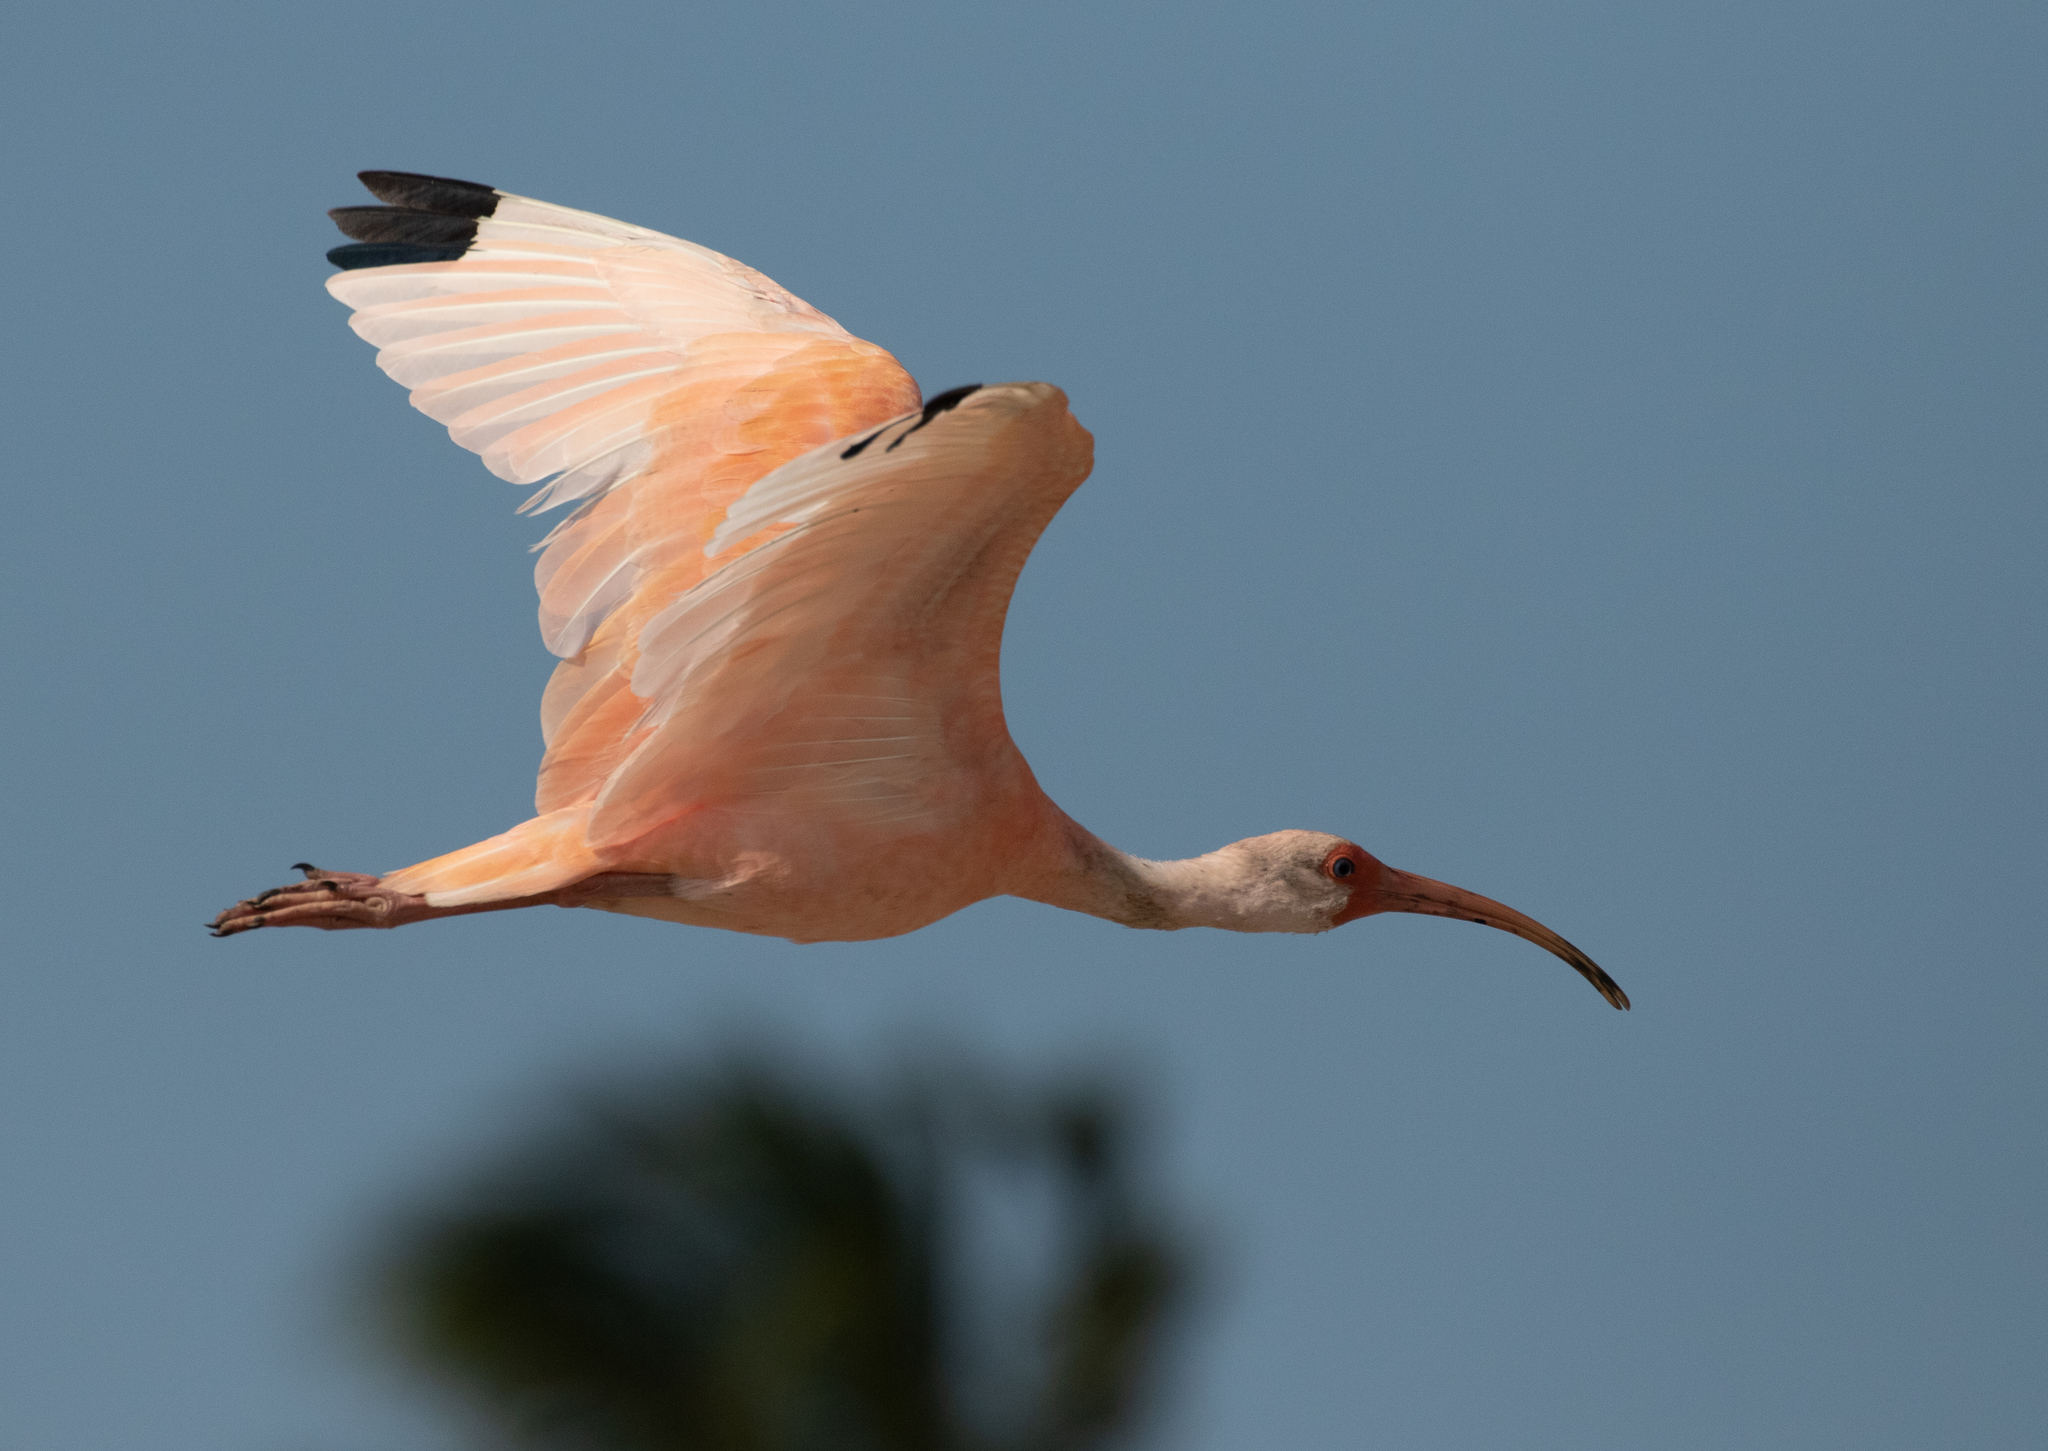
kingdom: Animalia
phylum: Chordata
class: Aves
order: Pelecaniformes
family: Threskiornithidae
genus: Eudocimus
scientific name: Eudocimus albus
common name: White ibis
